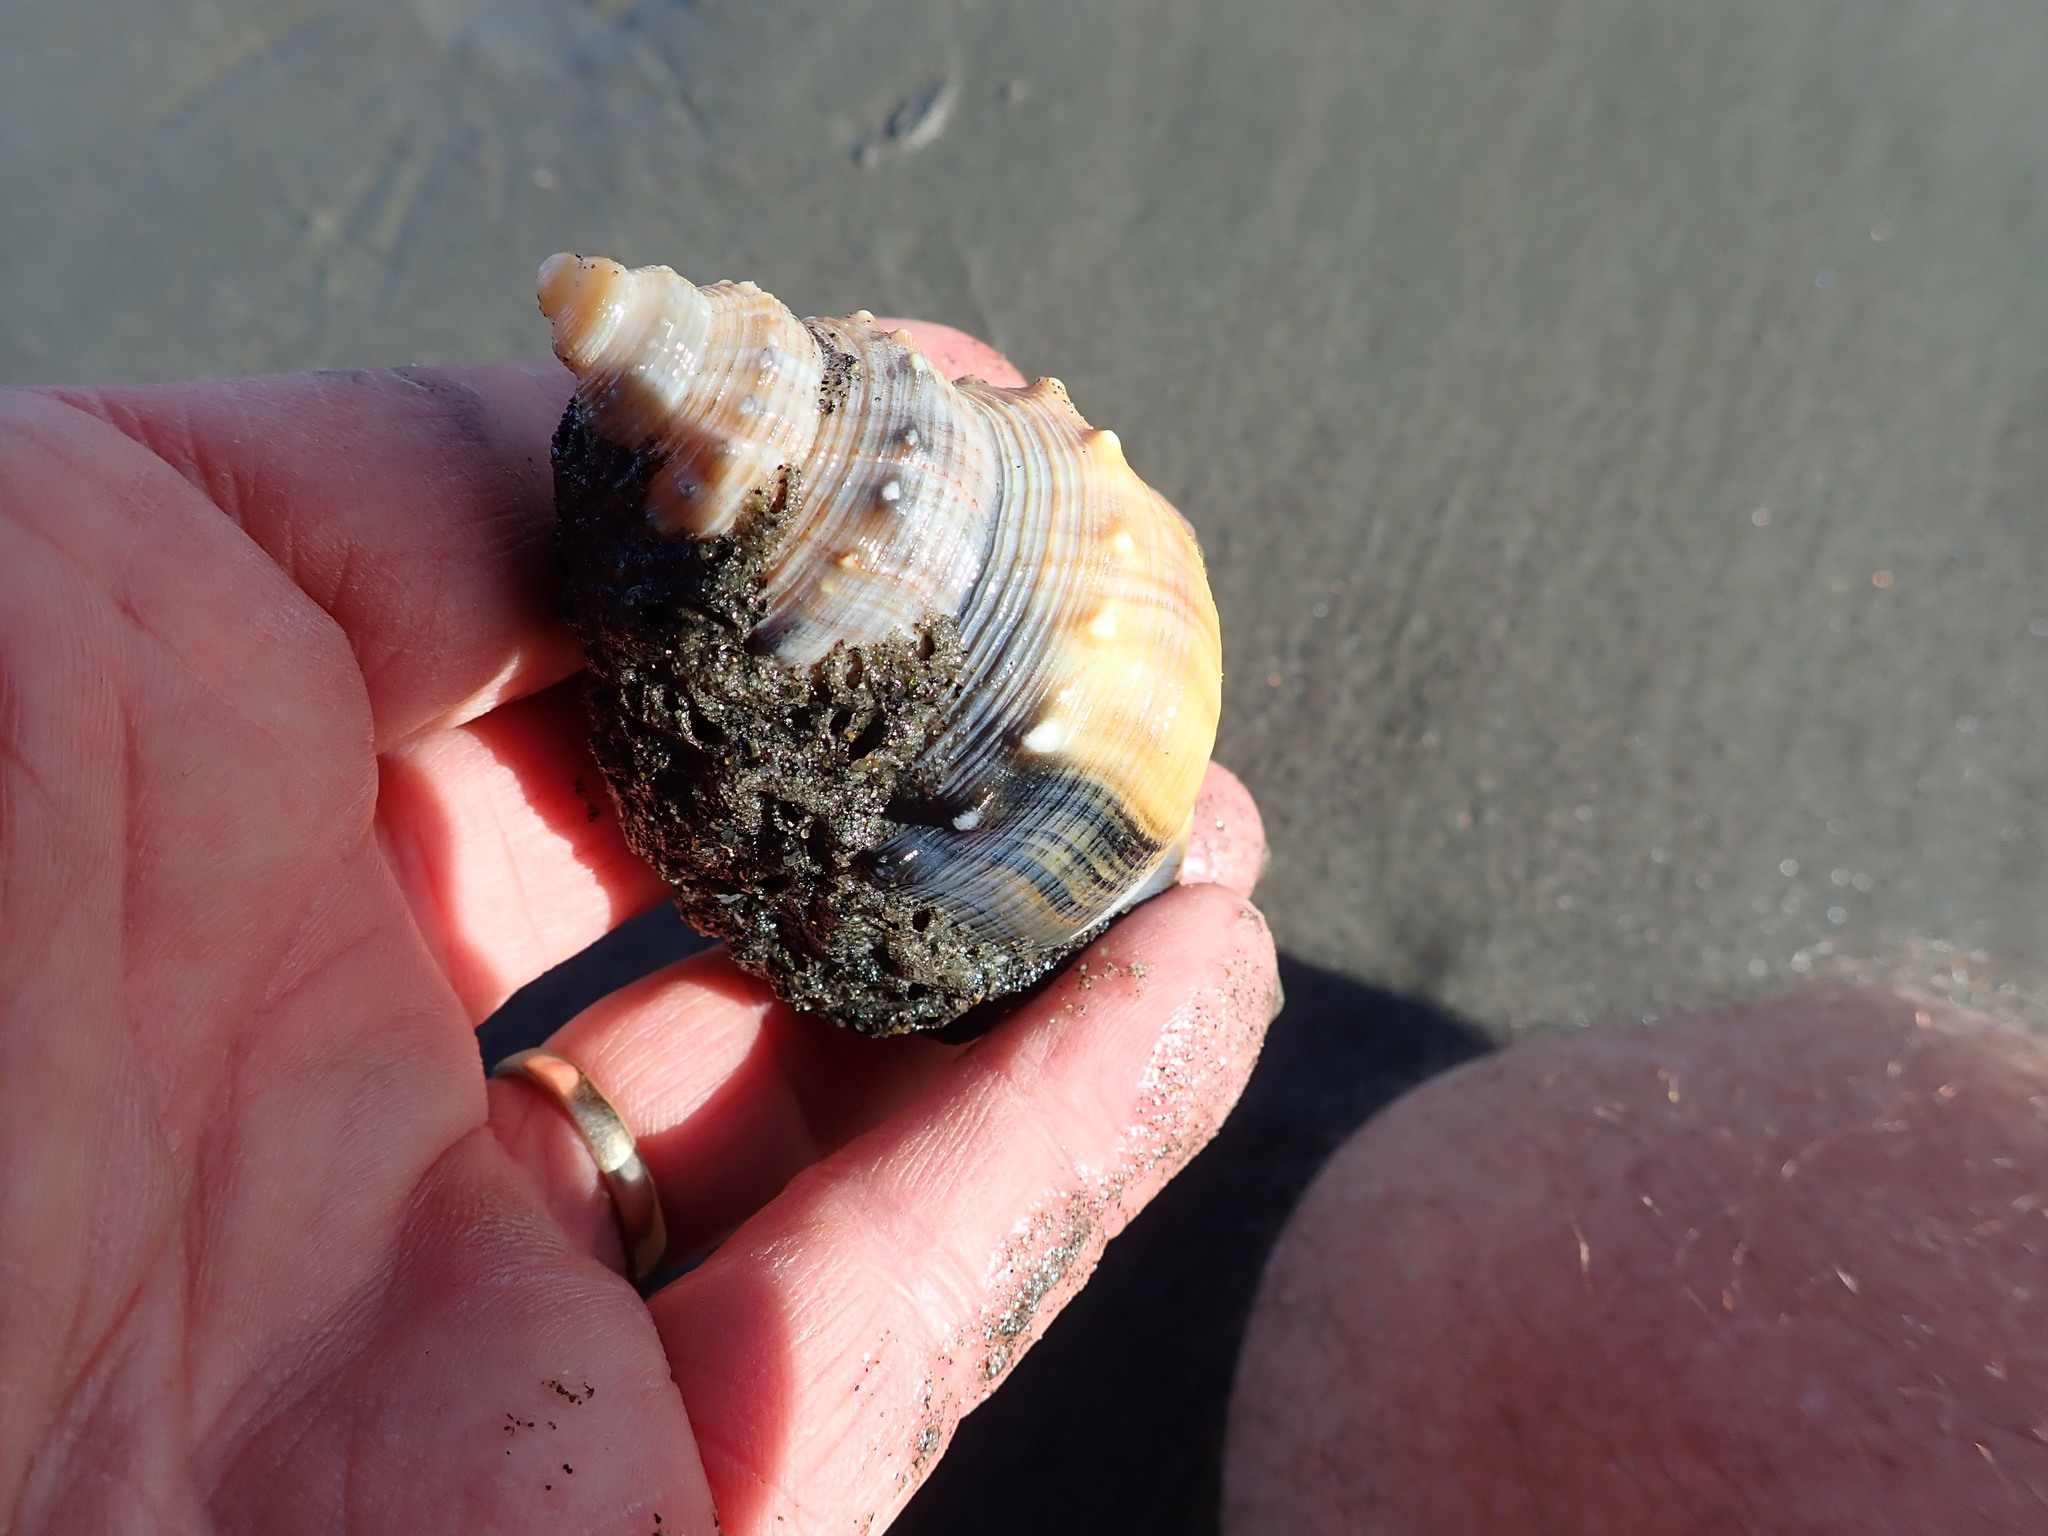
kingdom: Animalia
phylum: Mollusca
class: Gastropoda
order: Littorinimorpha
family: Struthiolariidae
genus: Struthiolaria
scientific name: Struthiolaria papulosa
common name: Large ostrich foot
